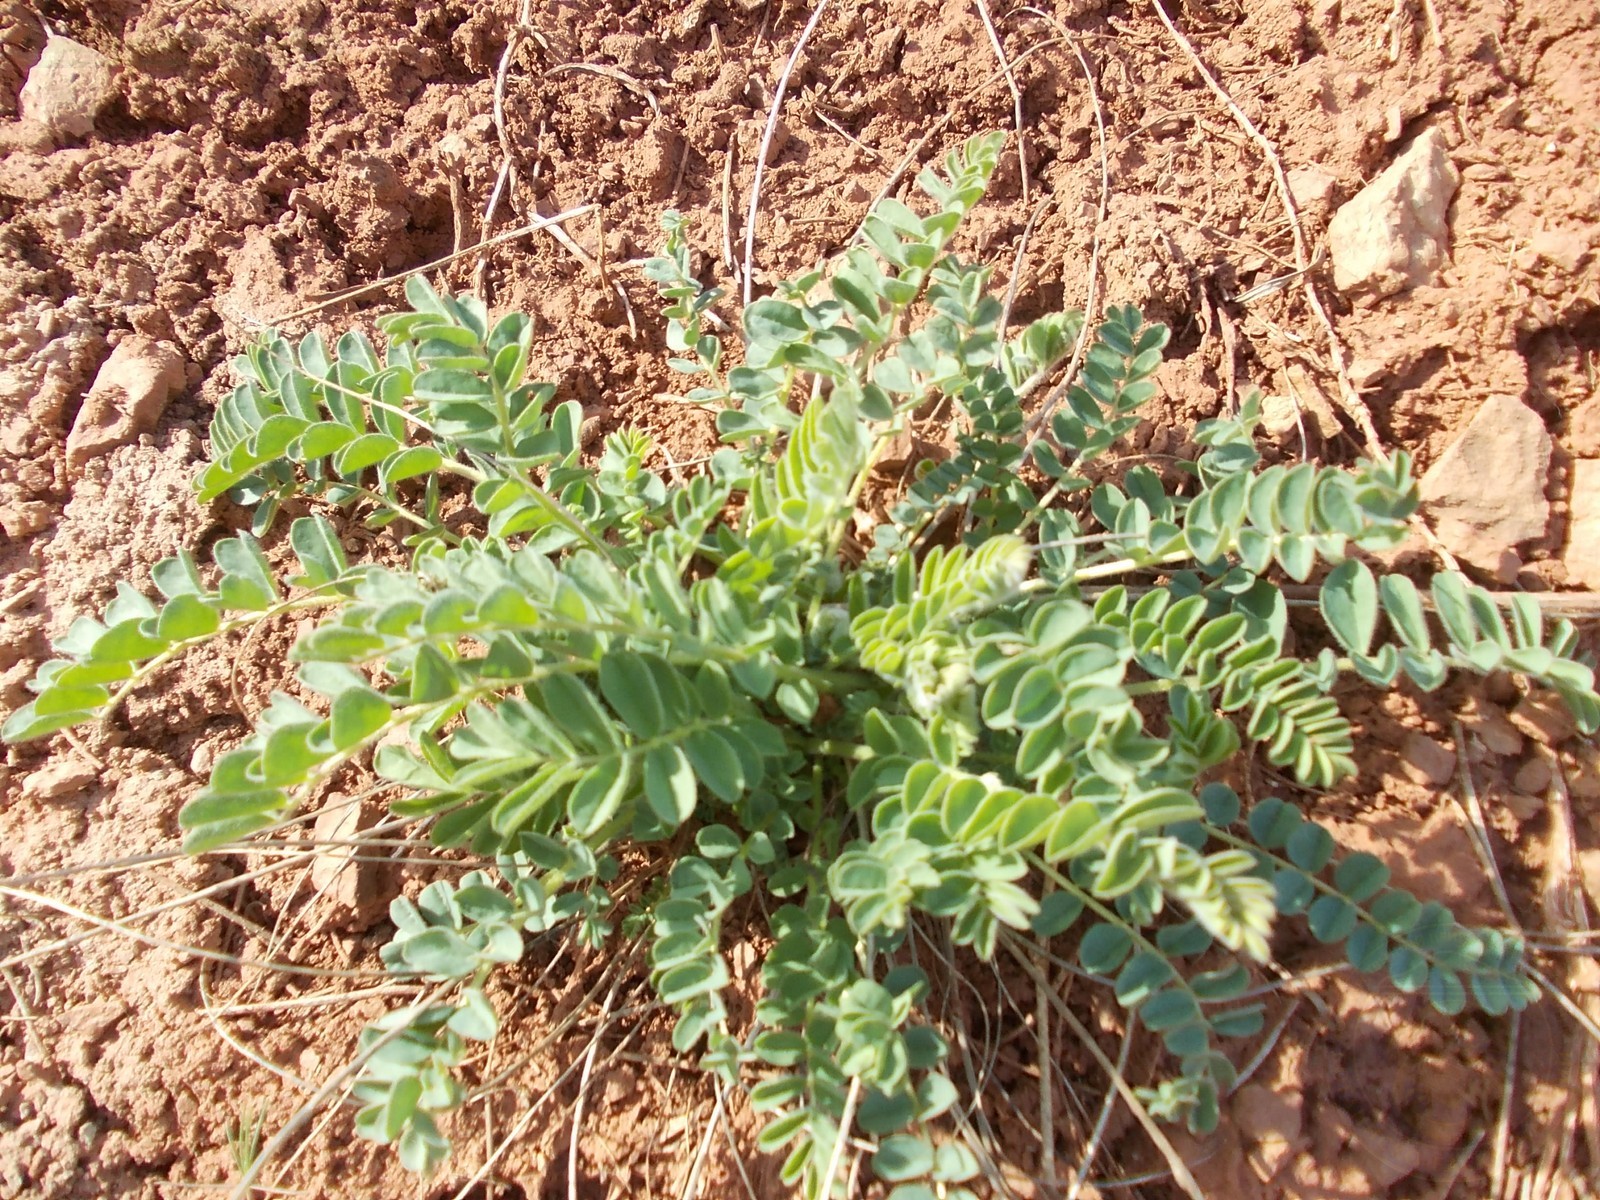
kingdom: Plantae
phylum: Tracheophyta
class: Magnoliopsida
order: Fabales
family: Fabaceae
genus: Astragalus
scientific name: Astragalus vulpinus
